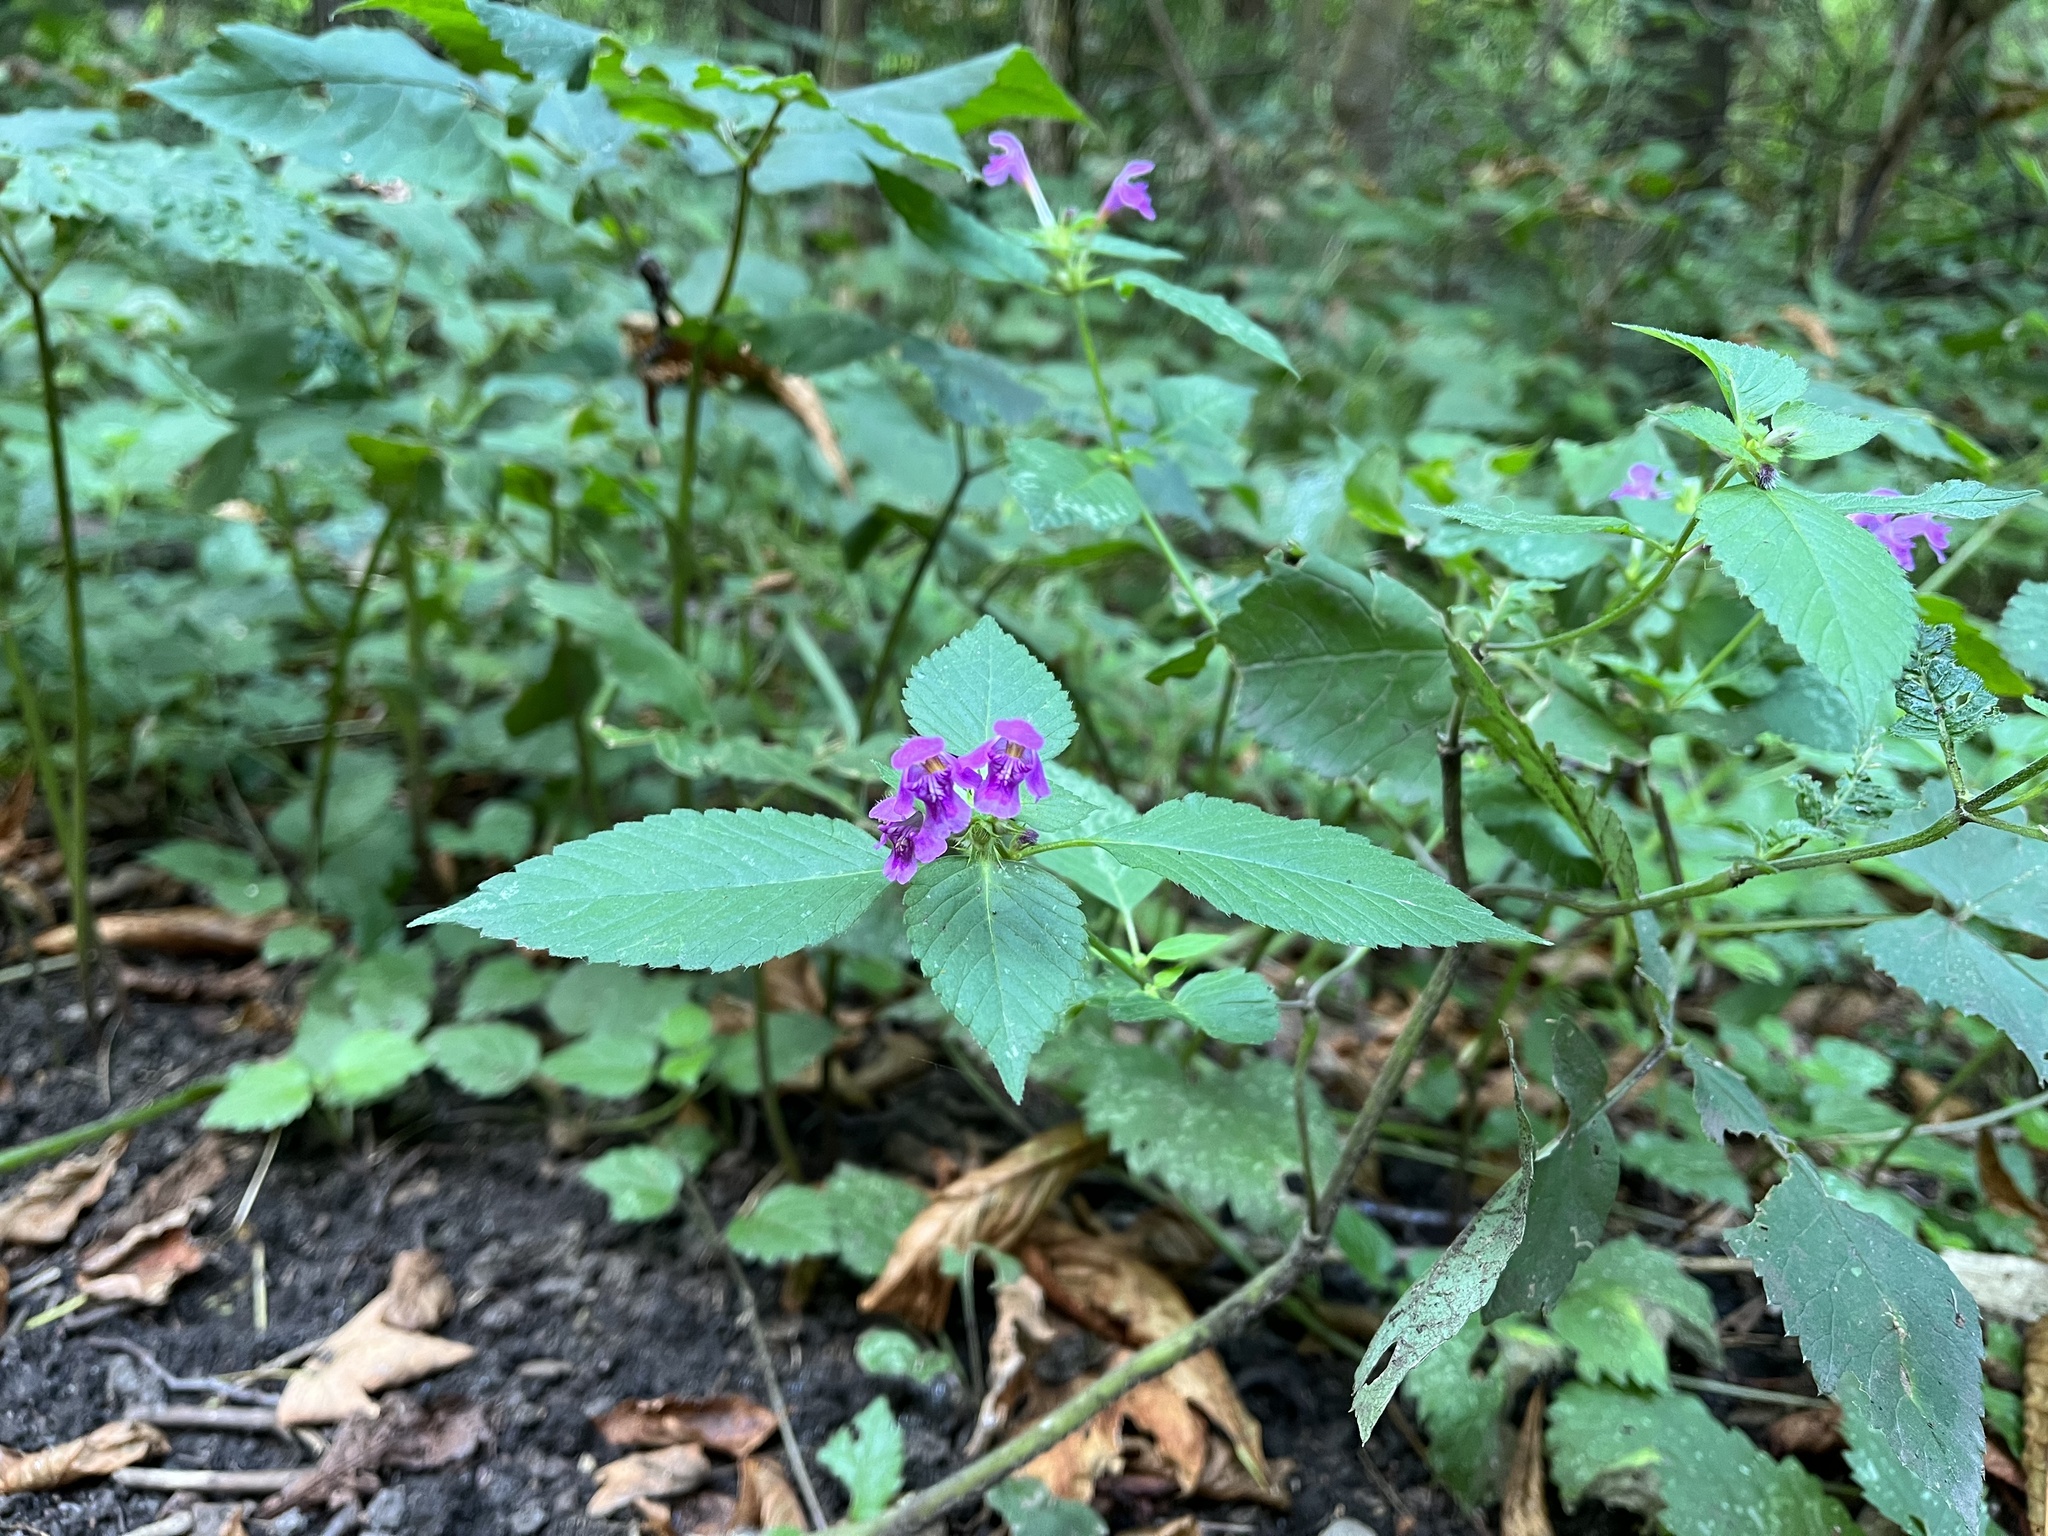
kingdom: Plantae
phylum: Tracheophyta
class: Magnoliopsida
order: Lamiales
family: Lamiaceae
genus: Galeopsis
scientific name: Galeopsis pubescens
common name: Downy hemp-nettle
